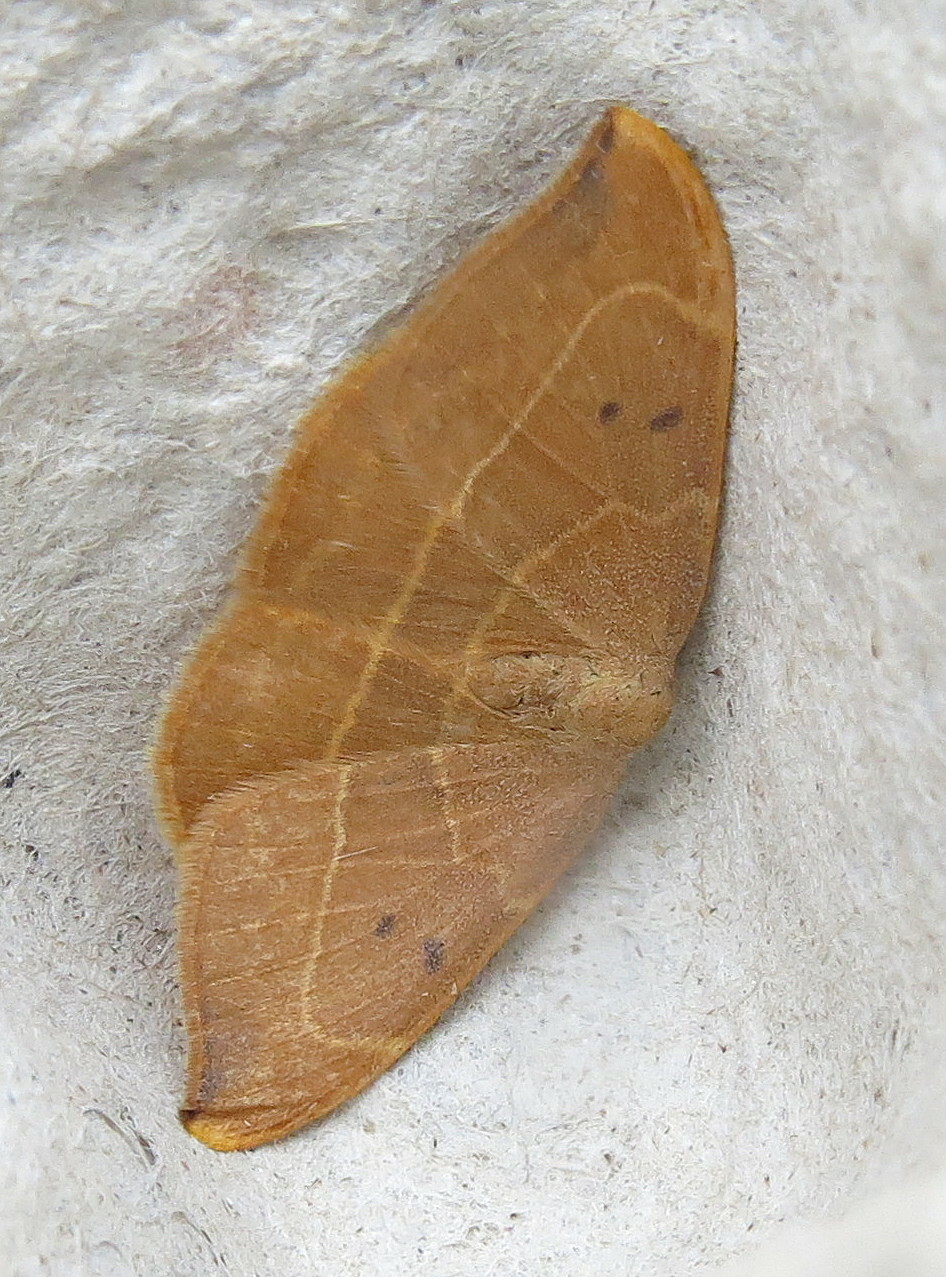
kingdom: Animalia
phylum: Arthropoda
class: Insecta
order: Lepidoptera
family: Drepanidae
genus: Watsonalla
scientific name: Watsonalla binaria
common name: Oak hook-tip
